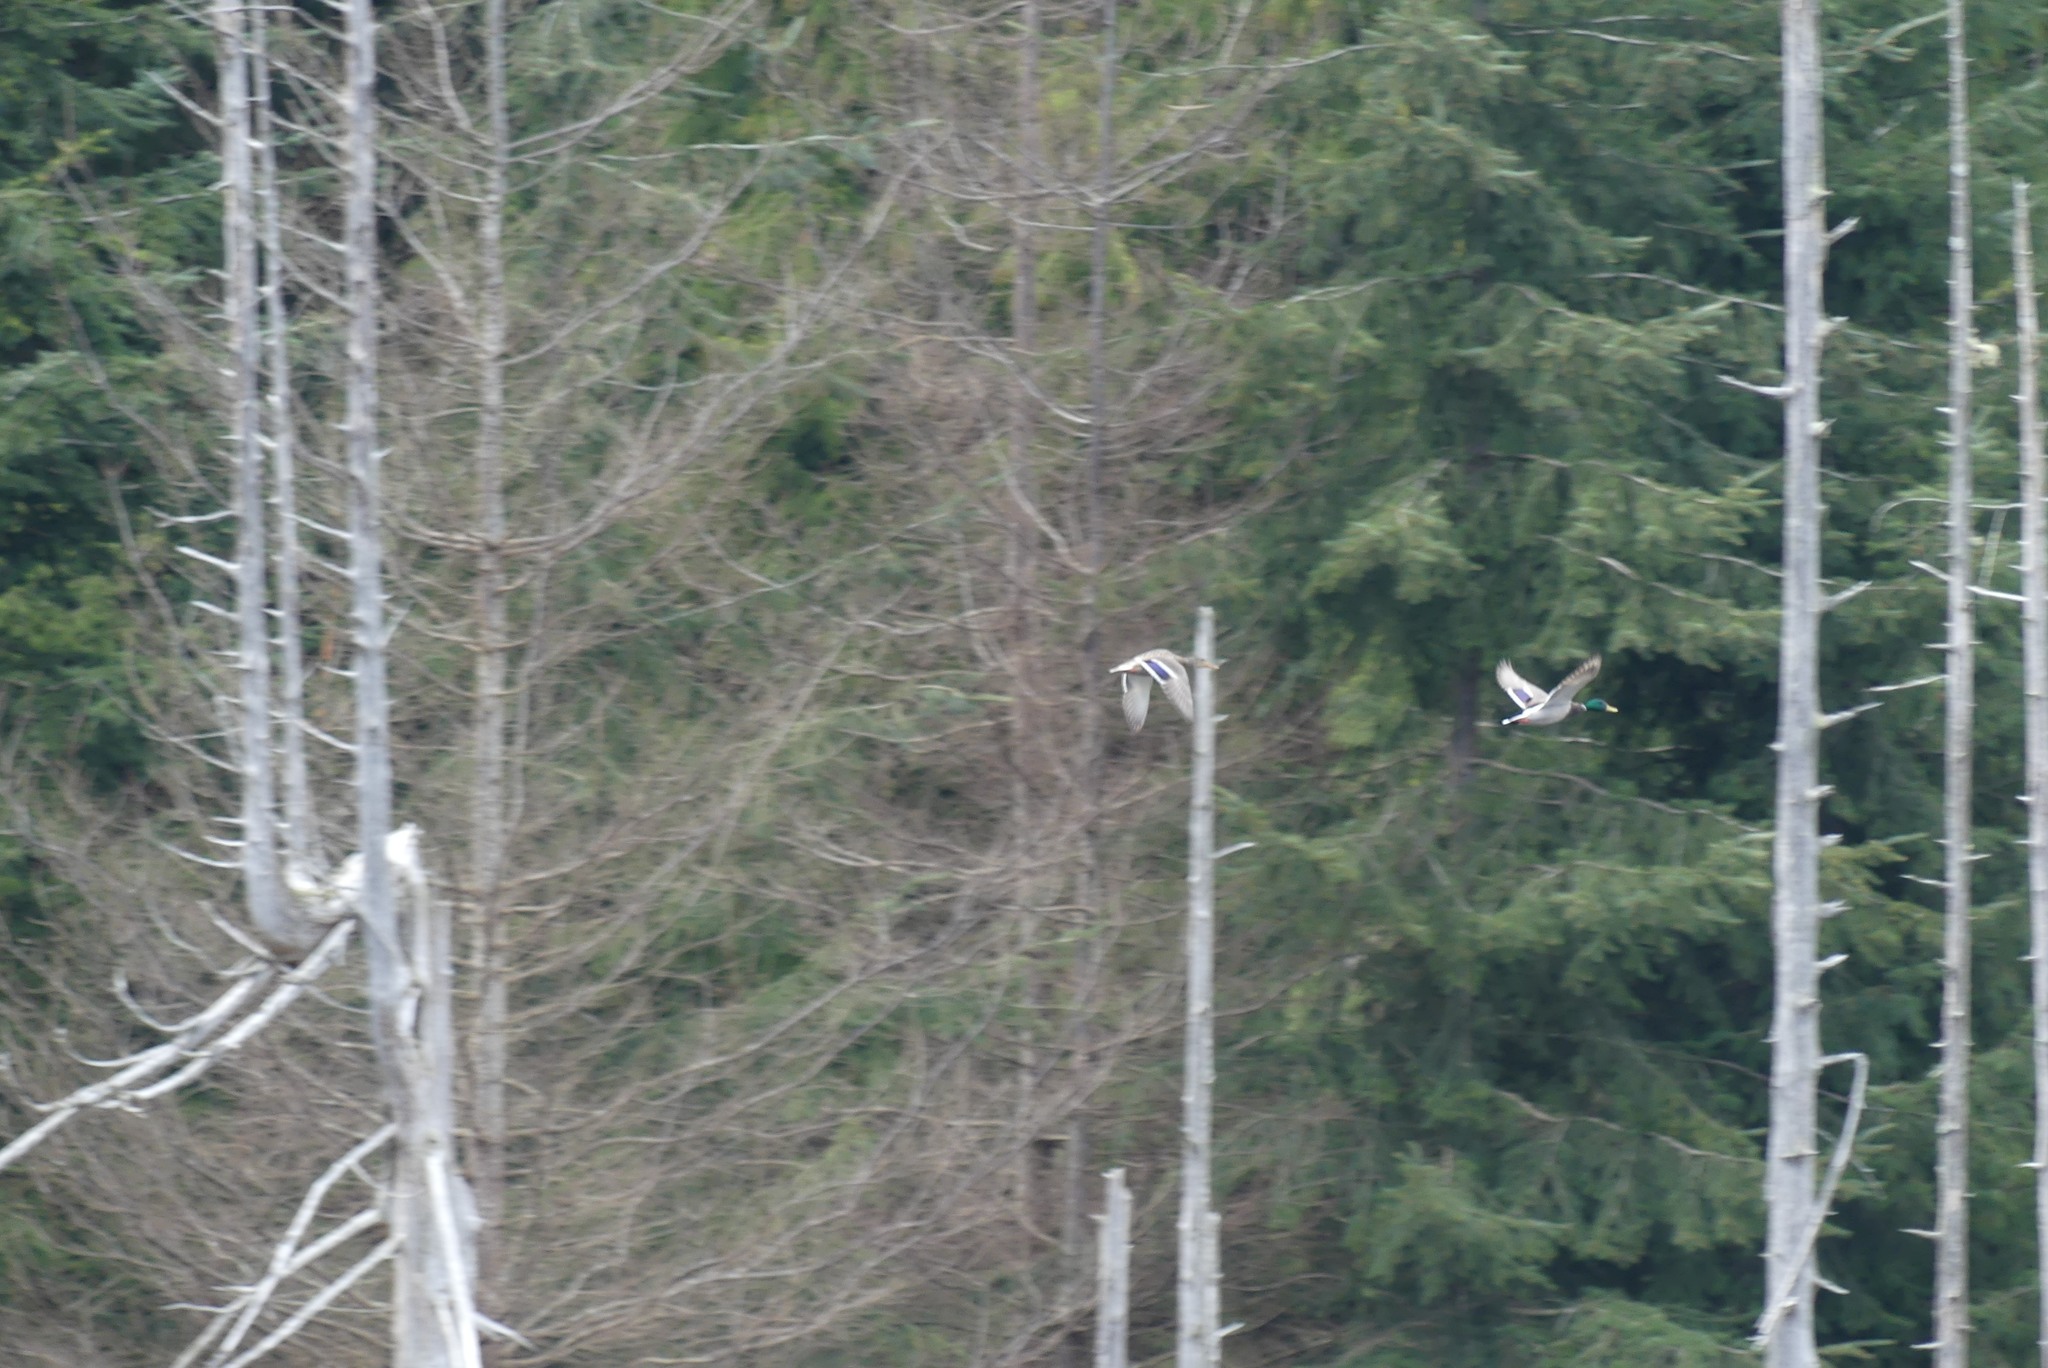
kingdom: Animalia
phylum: Chordata
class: Aves
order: Anseriformes
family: Anatidae
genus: Anas
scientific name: Anas platyrhynchos
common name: Mallard
